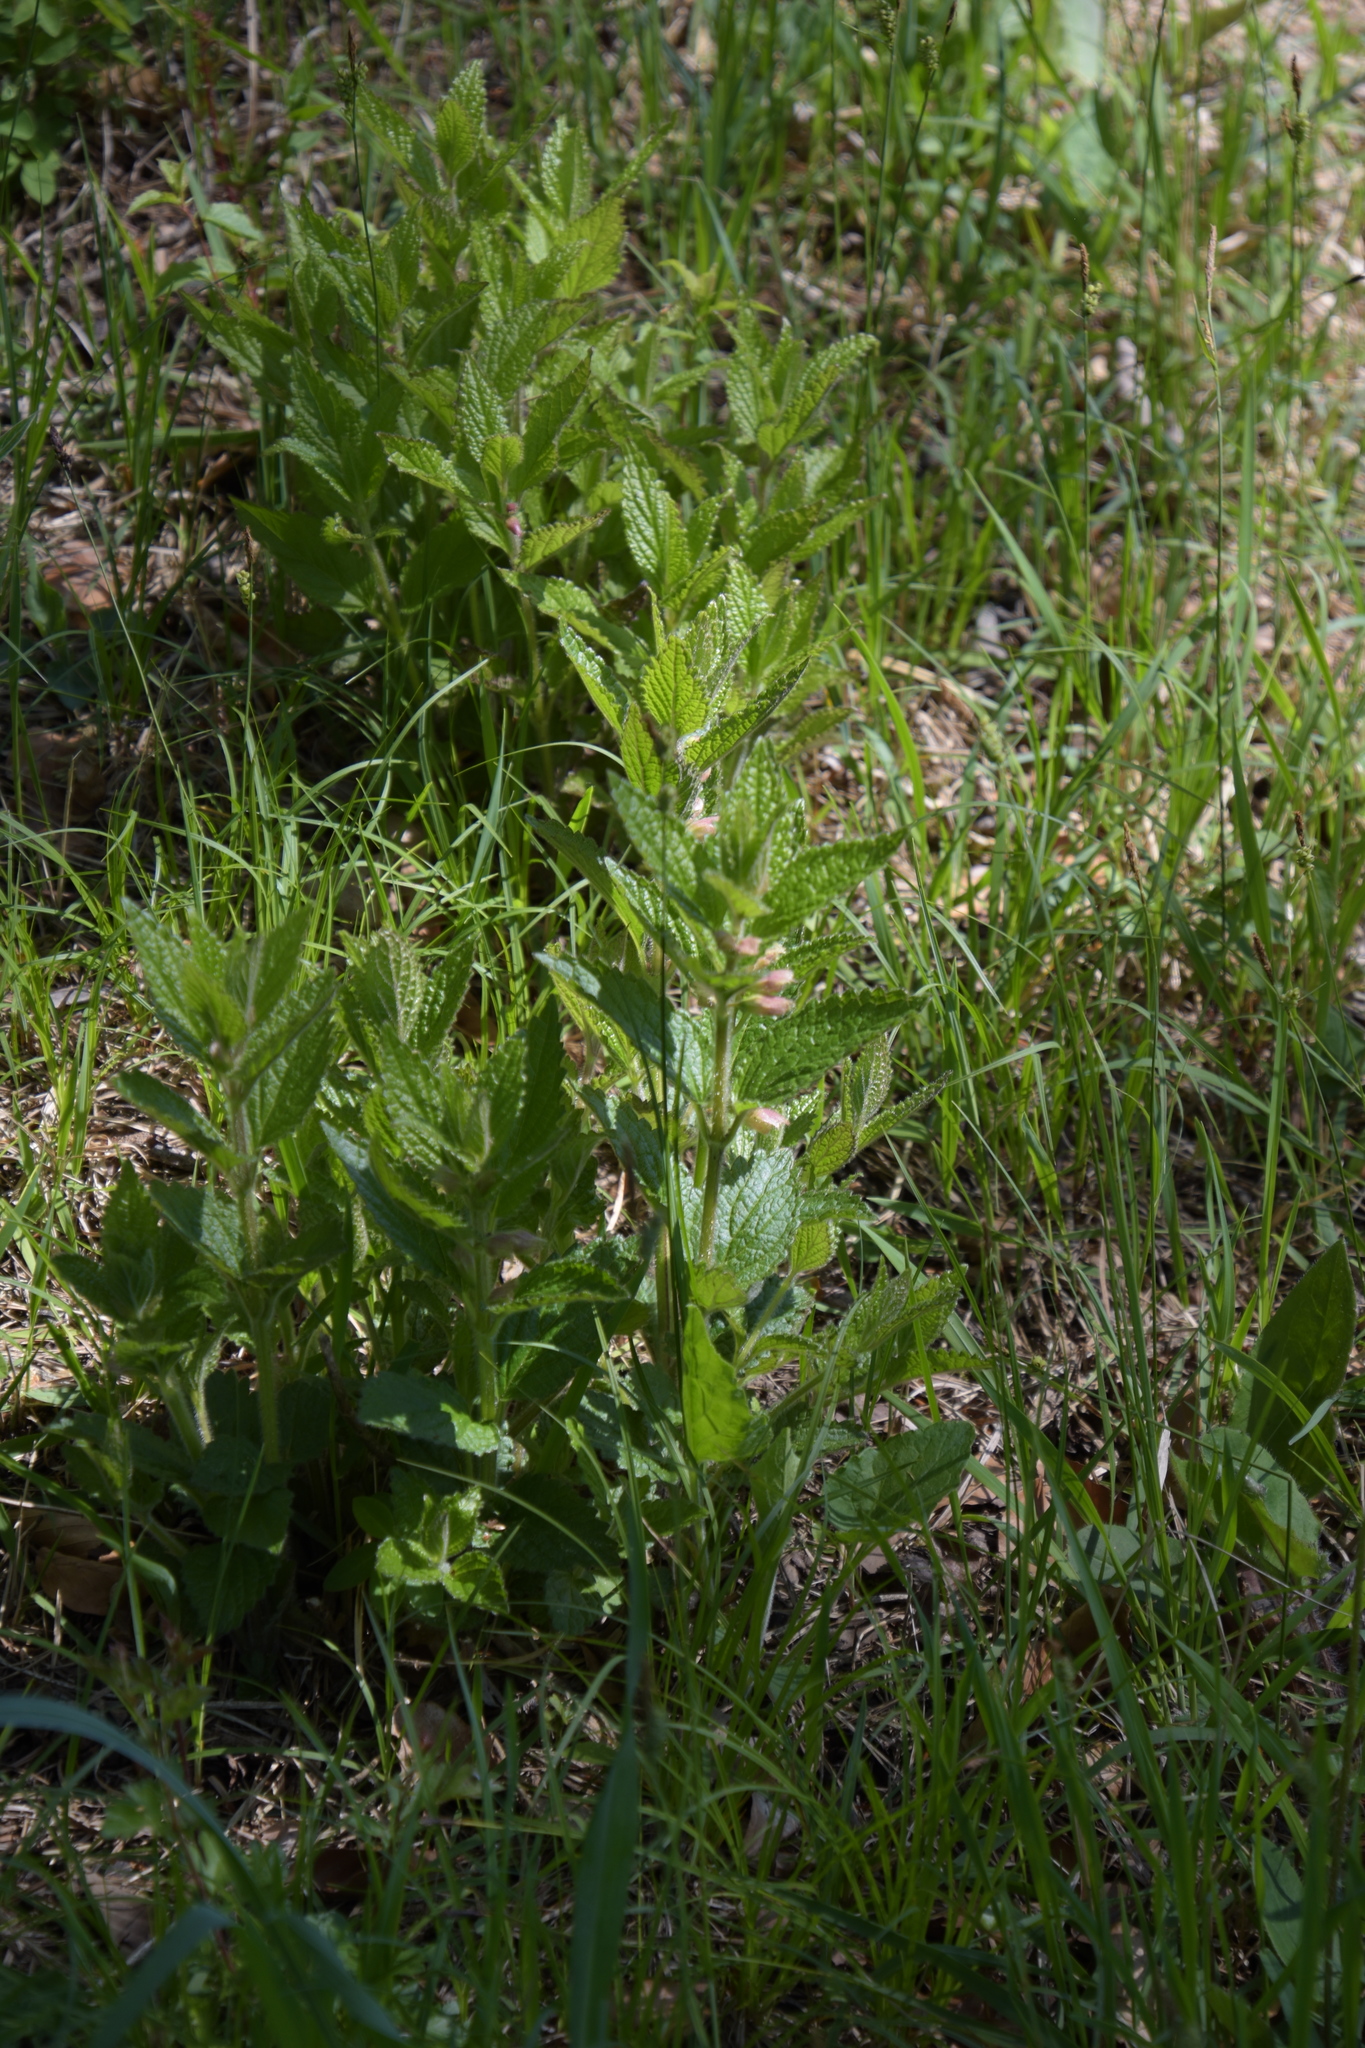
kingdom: Plantae
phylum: Tracheophyta
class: Magnoliopsida
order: Lamiales
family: Lamiaceae
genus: Melittis
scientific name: Melittis melissophyllum
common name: Bastard balm
